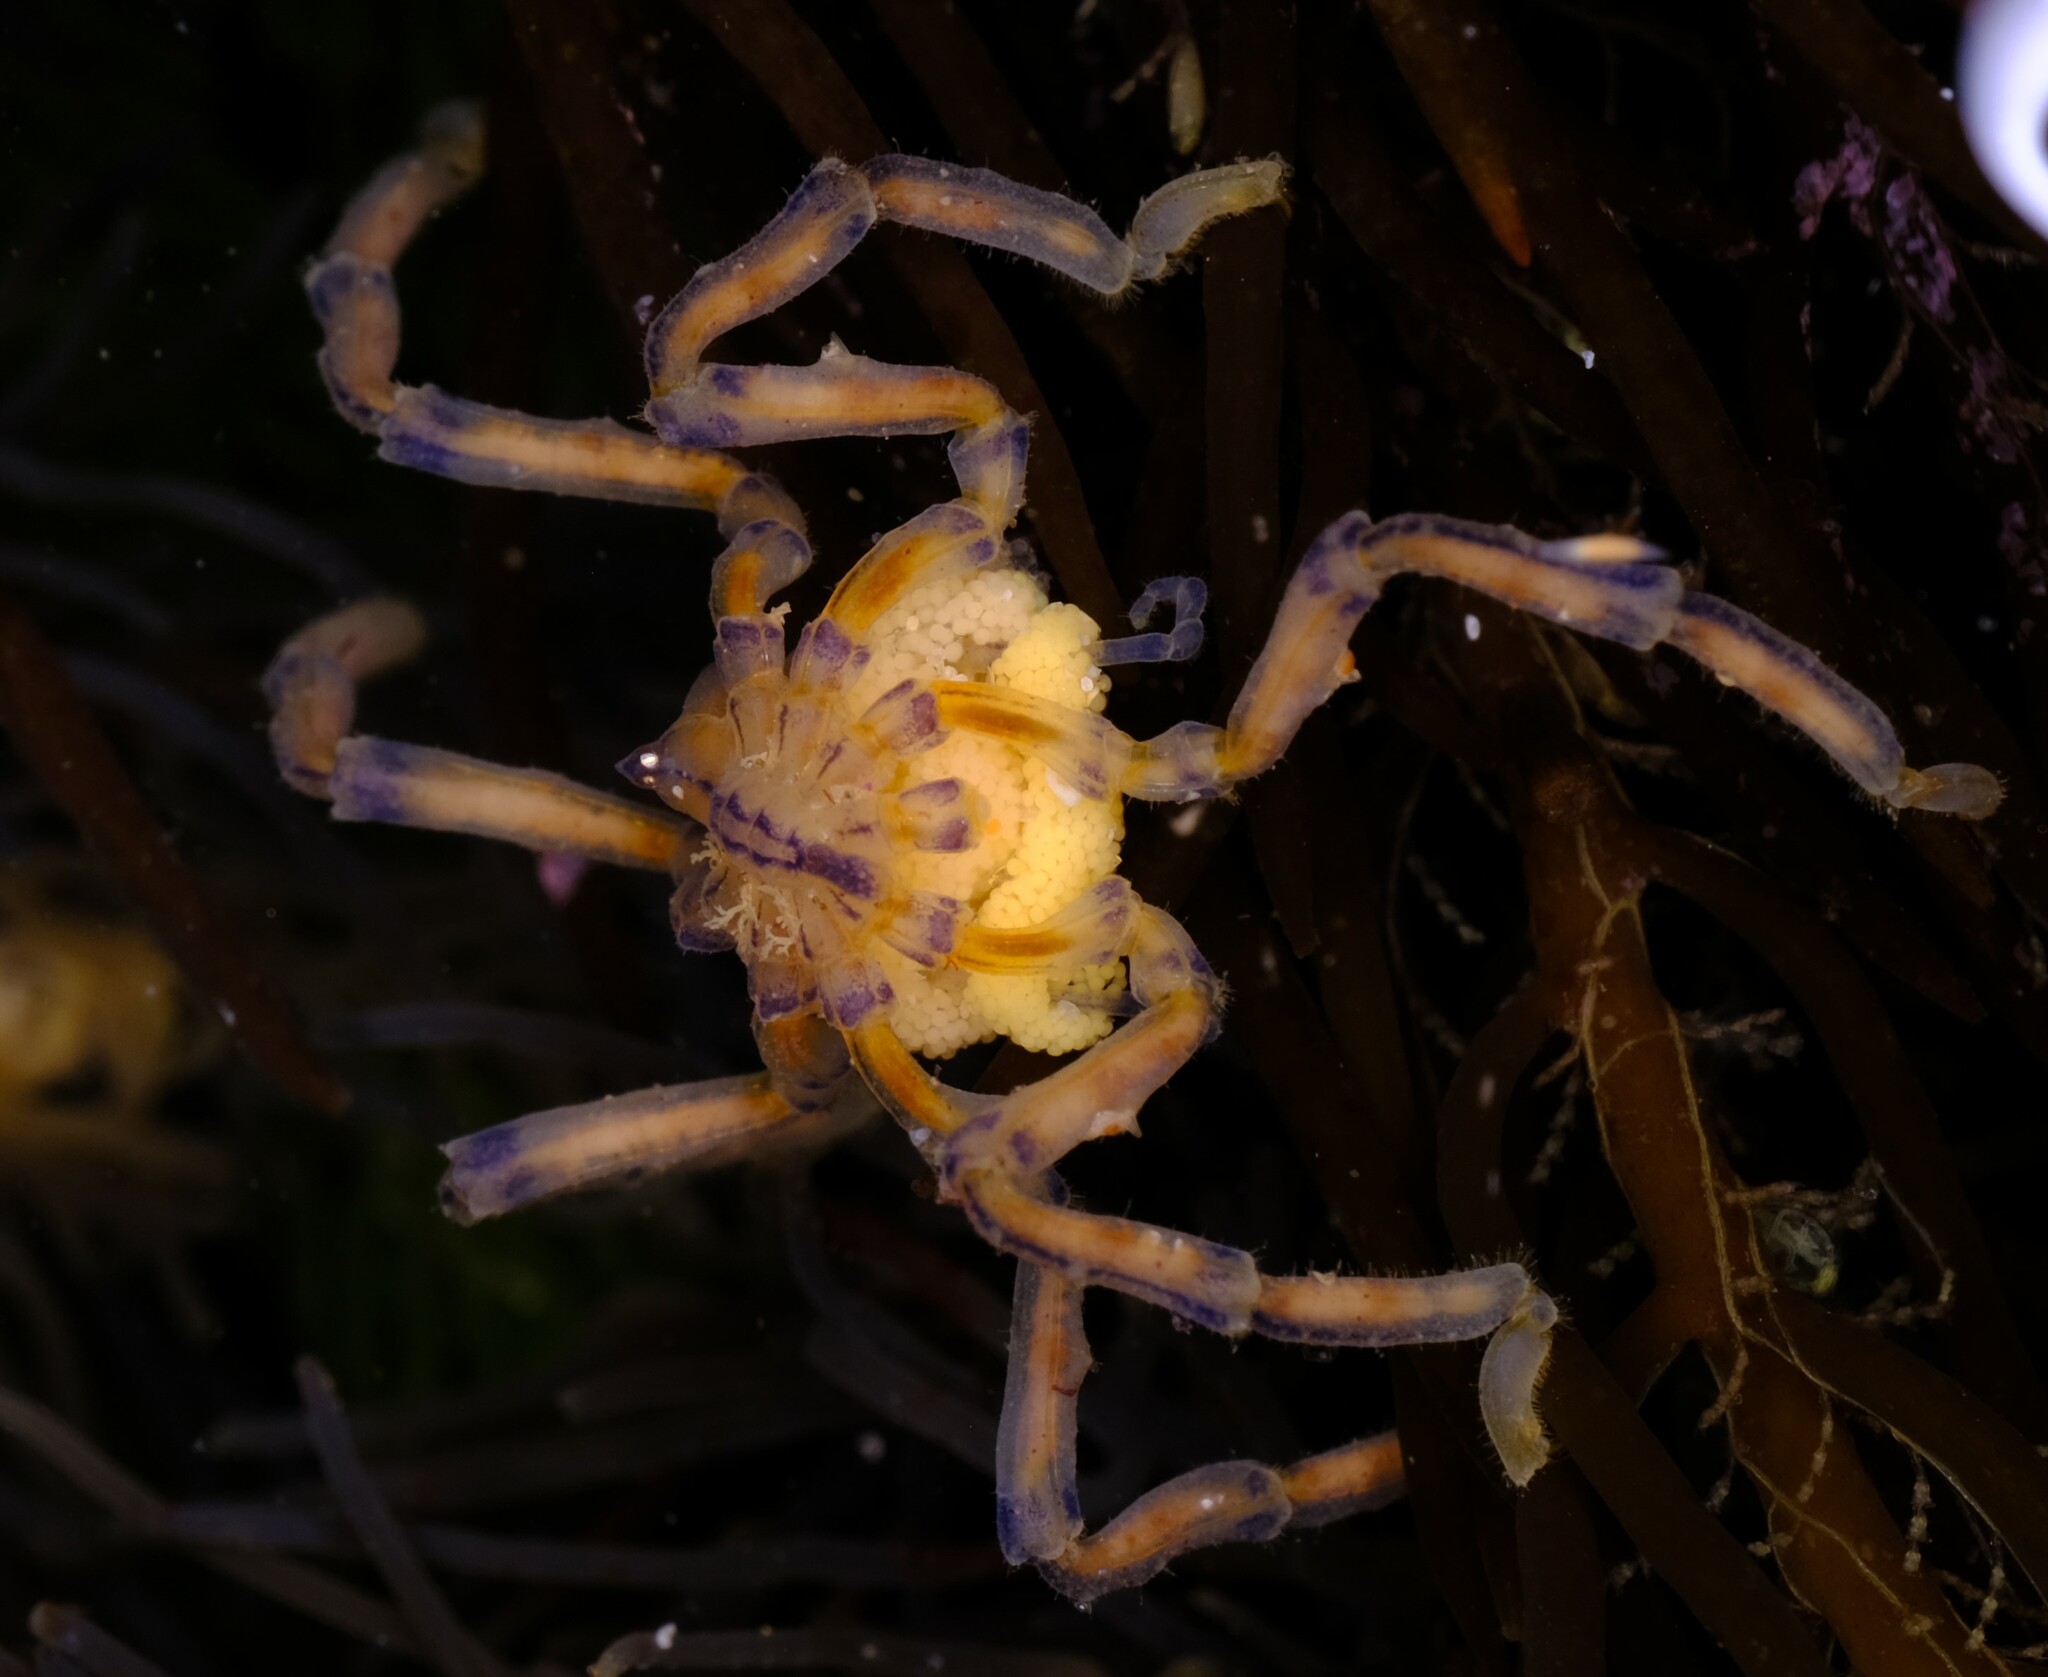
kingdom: Animalia
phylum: Arthropoda
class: Pycnogonida
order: Pantopoda
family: Pallenopsidae
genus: Pallenopsis
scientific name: Pallenopsis macneilli
